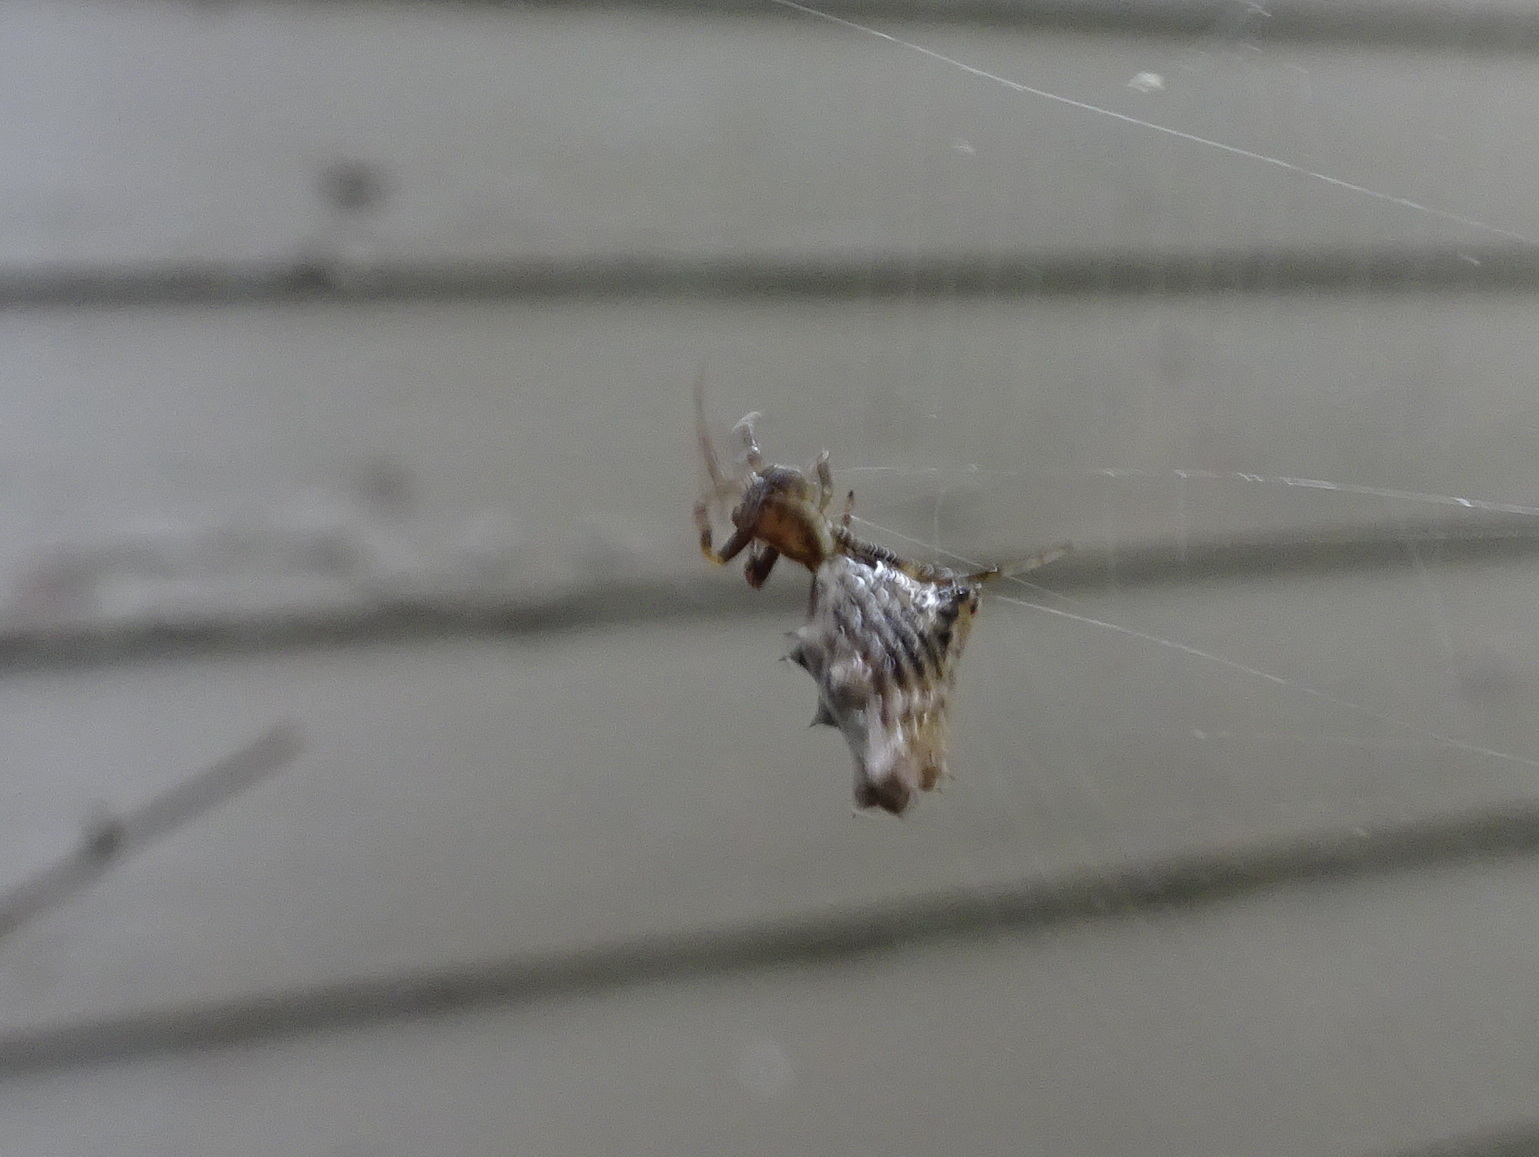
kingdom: Animalia
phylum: Arthropoda
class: Arachnida
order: Araneae
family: Araneidae
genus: Micrathena
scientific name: Micrathena gracilis
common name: Orb weavers
